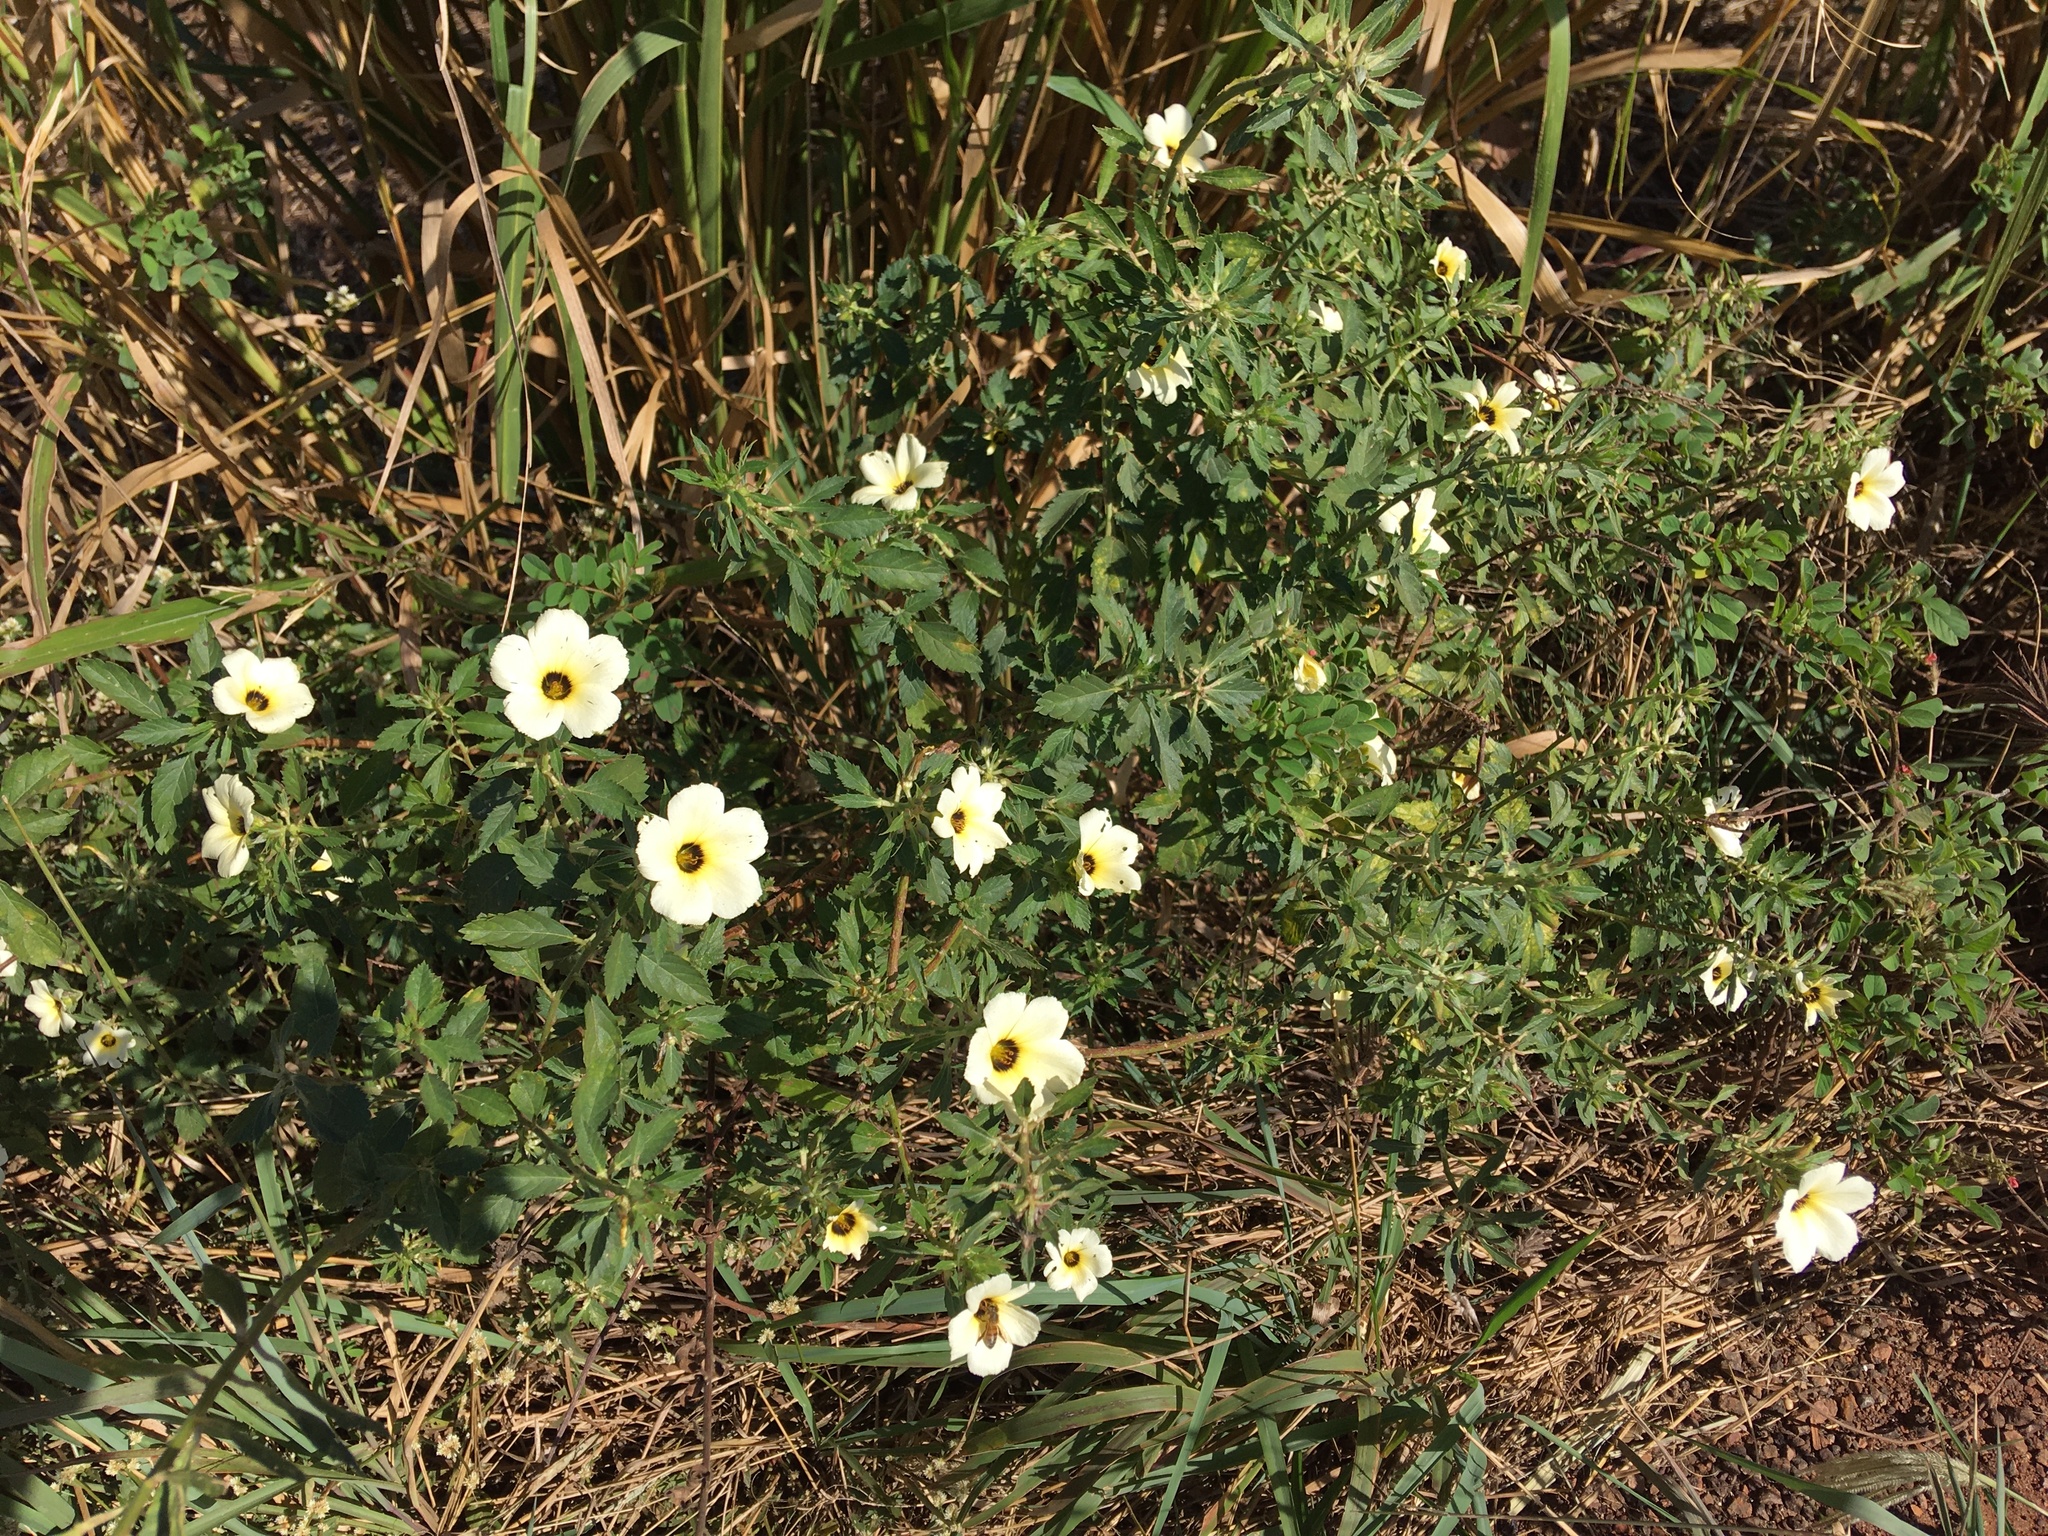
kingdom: Plantae
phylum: Tracheophyta
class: Magnoliopsida
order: Malpighiales
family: Turneraceae
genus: Turnera
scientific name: Turnera subulata
